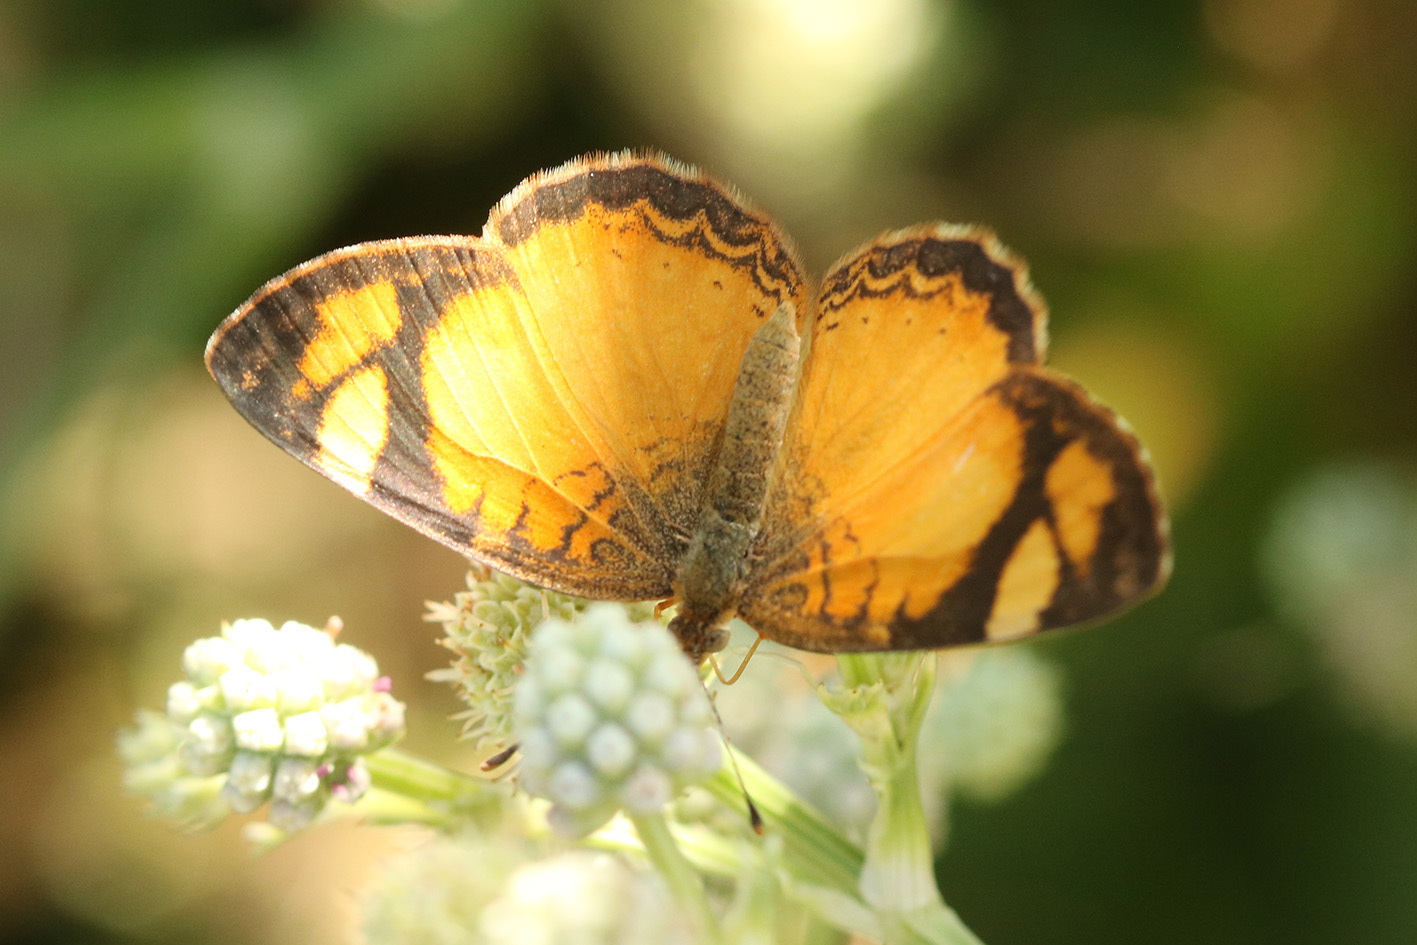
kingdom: Animalia
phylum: Arthropoda
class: Insecta
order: Lepidoptera
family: Nymphalidae
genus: Tegosa
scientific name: Tegosa claudina
